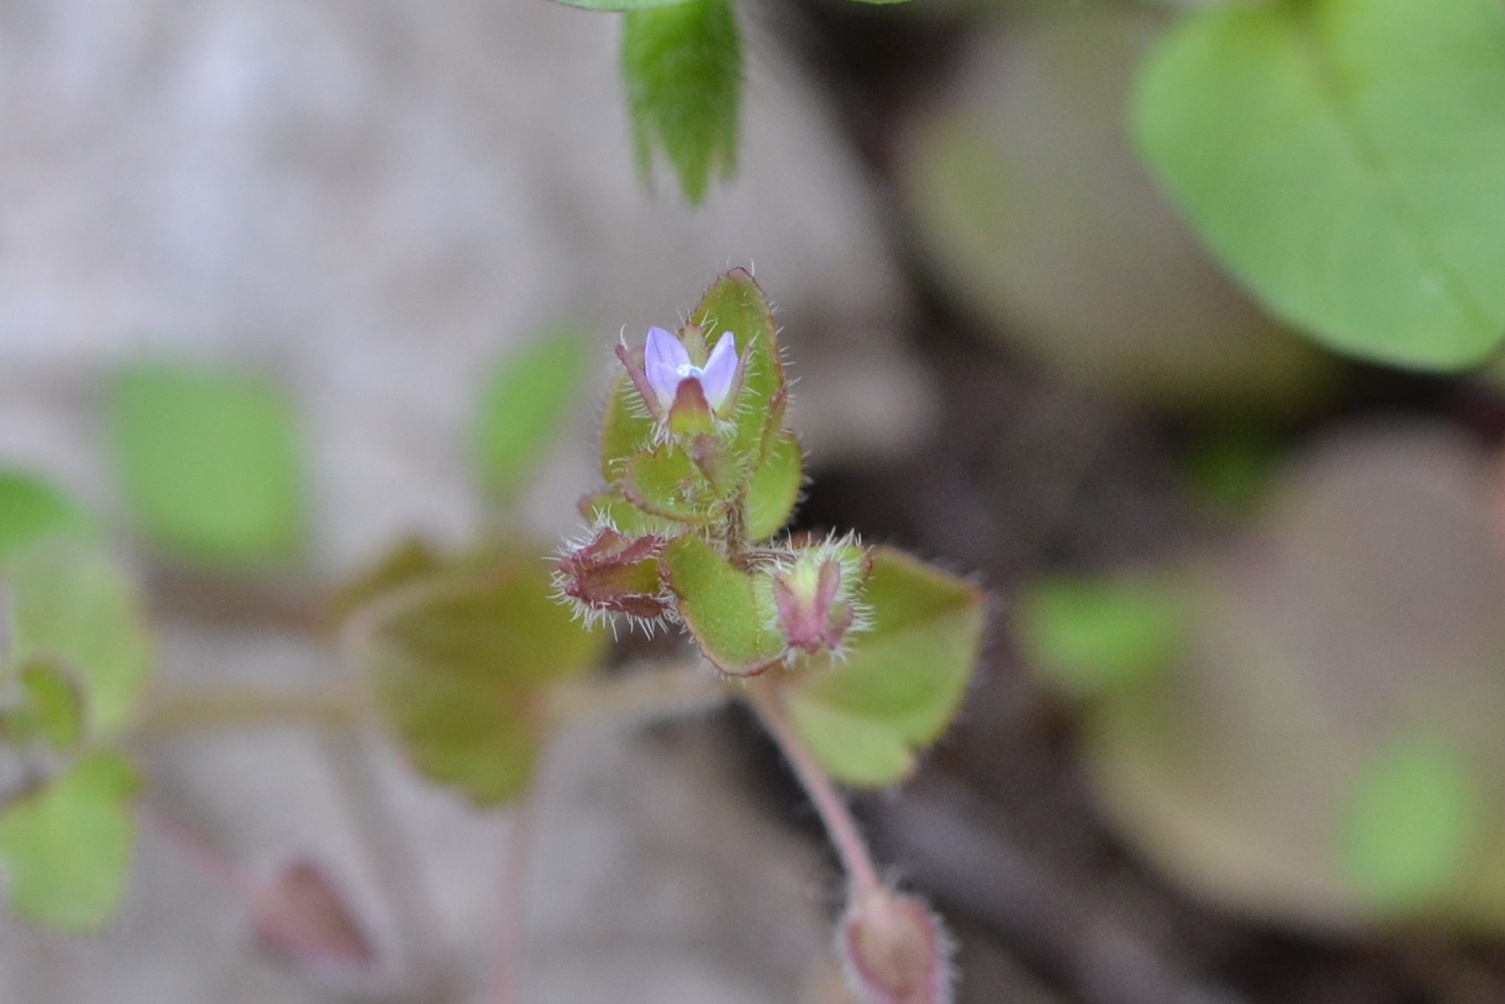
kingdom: Plantae
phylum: Tracheophyta
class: Magnoliopsida
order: Caryophyllales
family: Caryophyllaceae
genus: Stellaria
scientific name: Stellaria media
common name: Common chickweed
